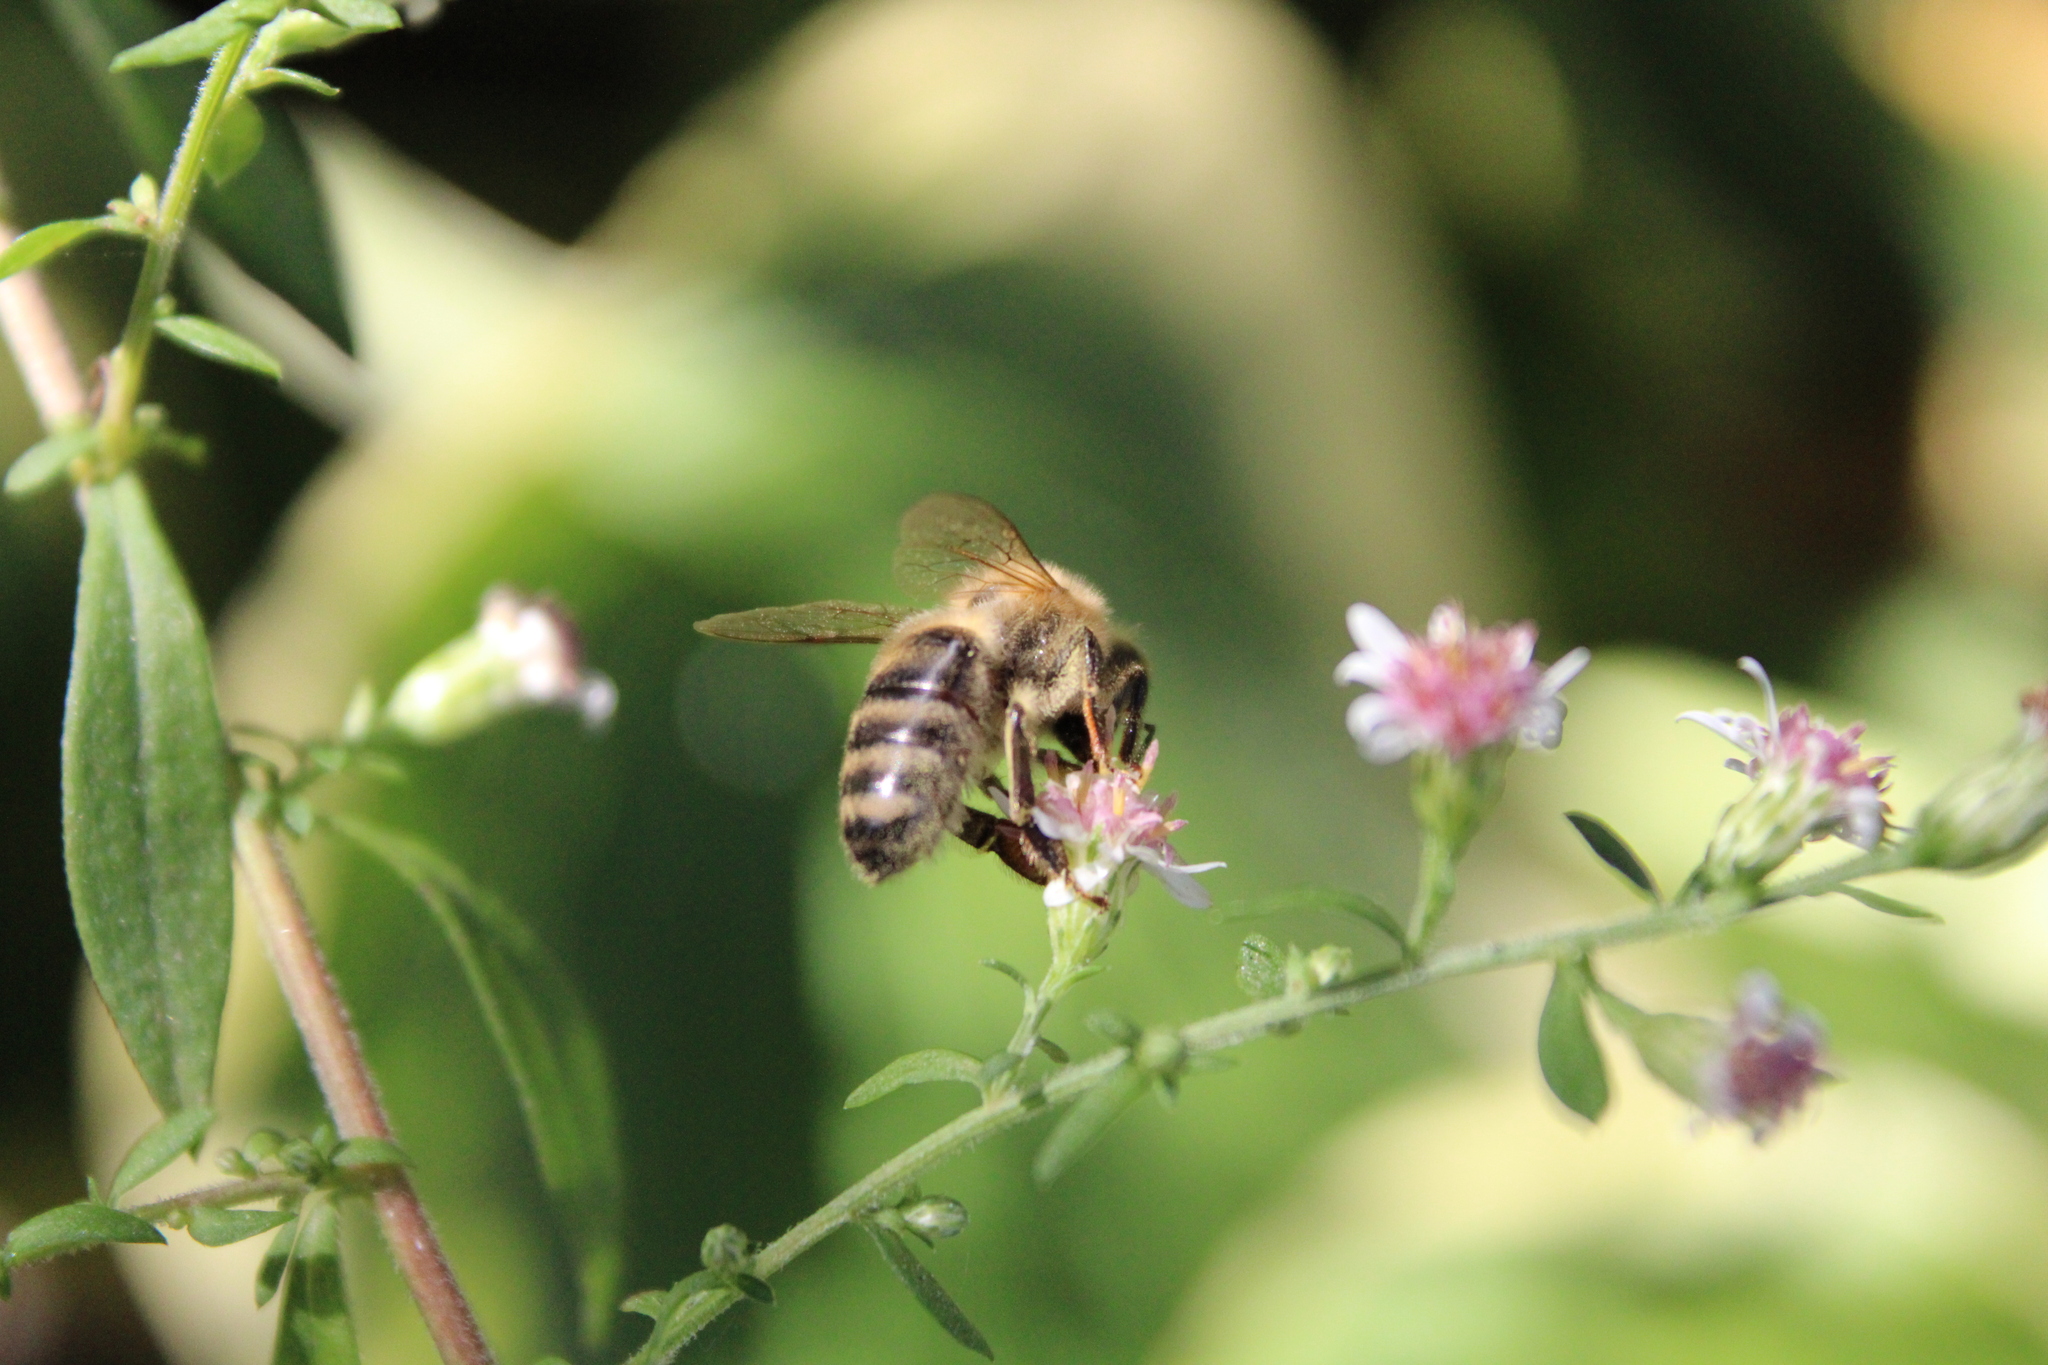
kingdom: Animalia
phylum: Arthropoda
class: Insecta
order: Hymenoptera
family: Apidae
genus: Apis
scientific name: Apis mellifera
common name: Honey bee
